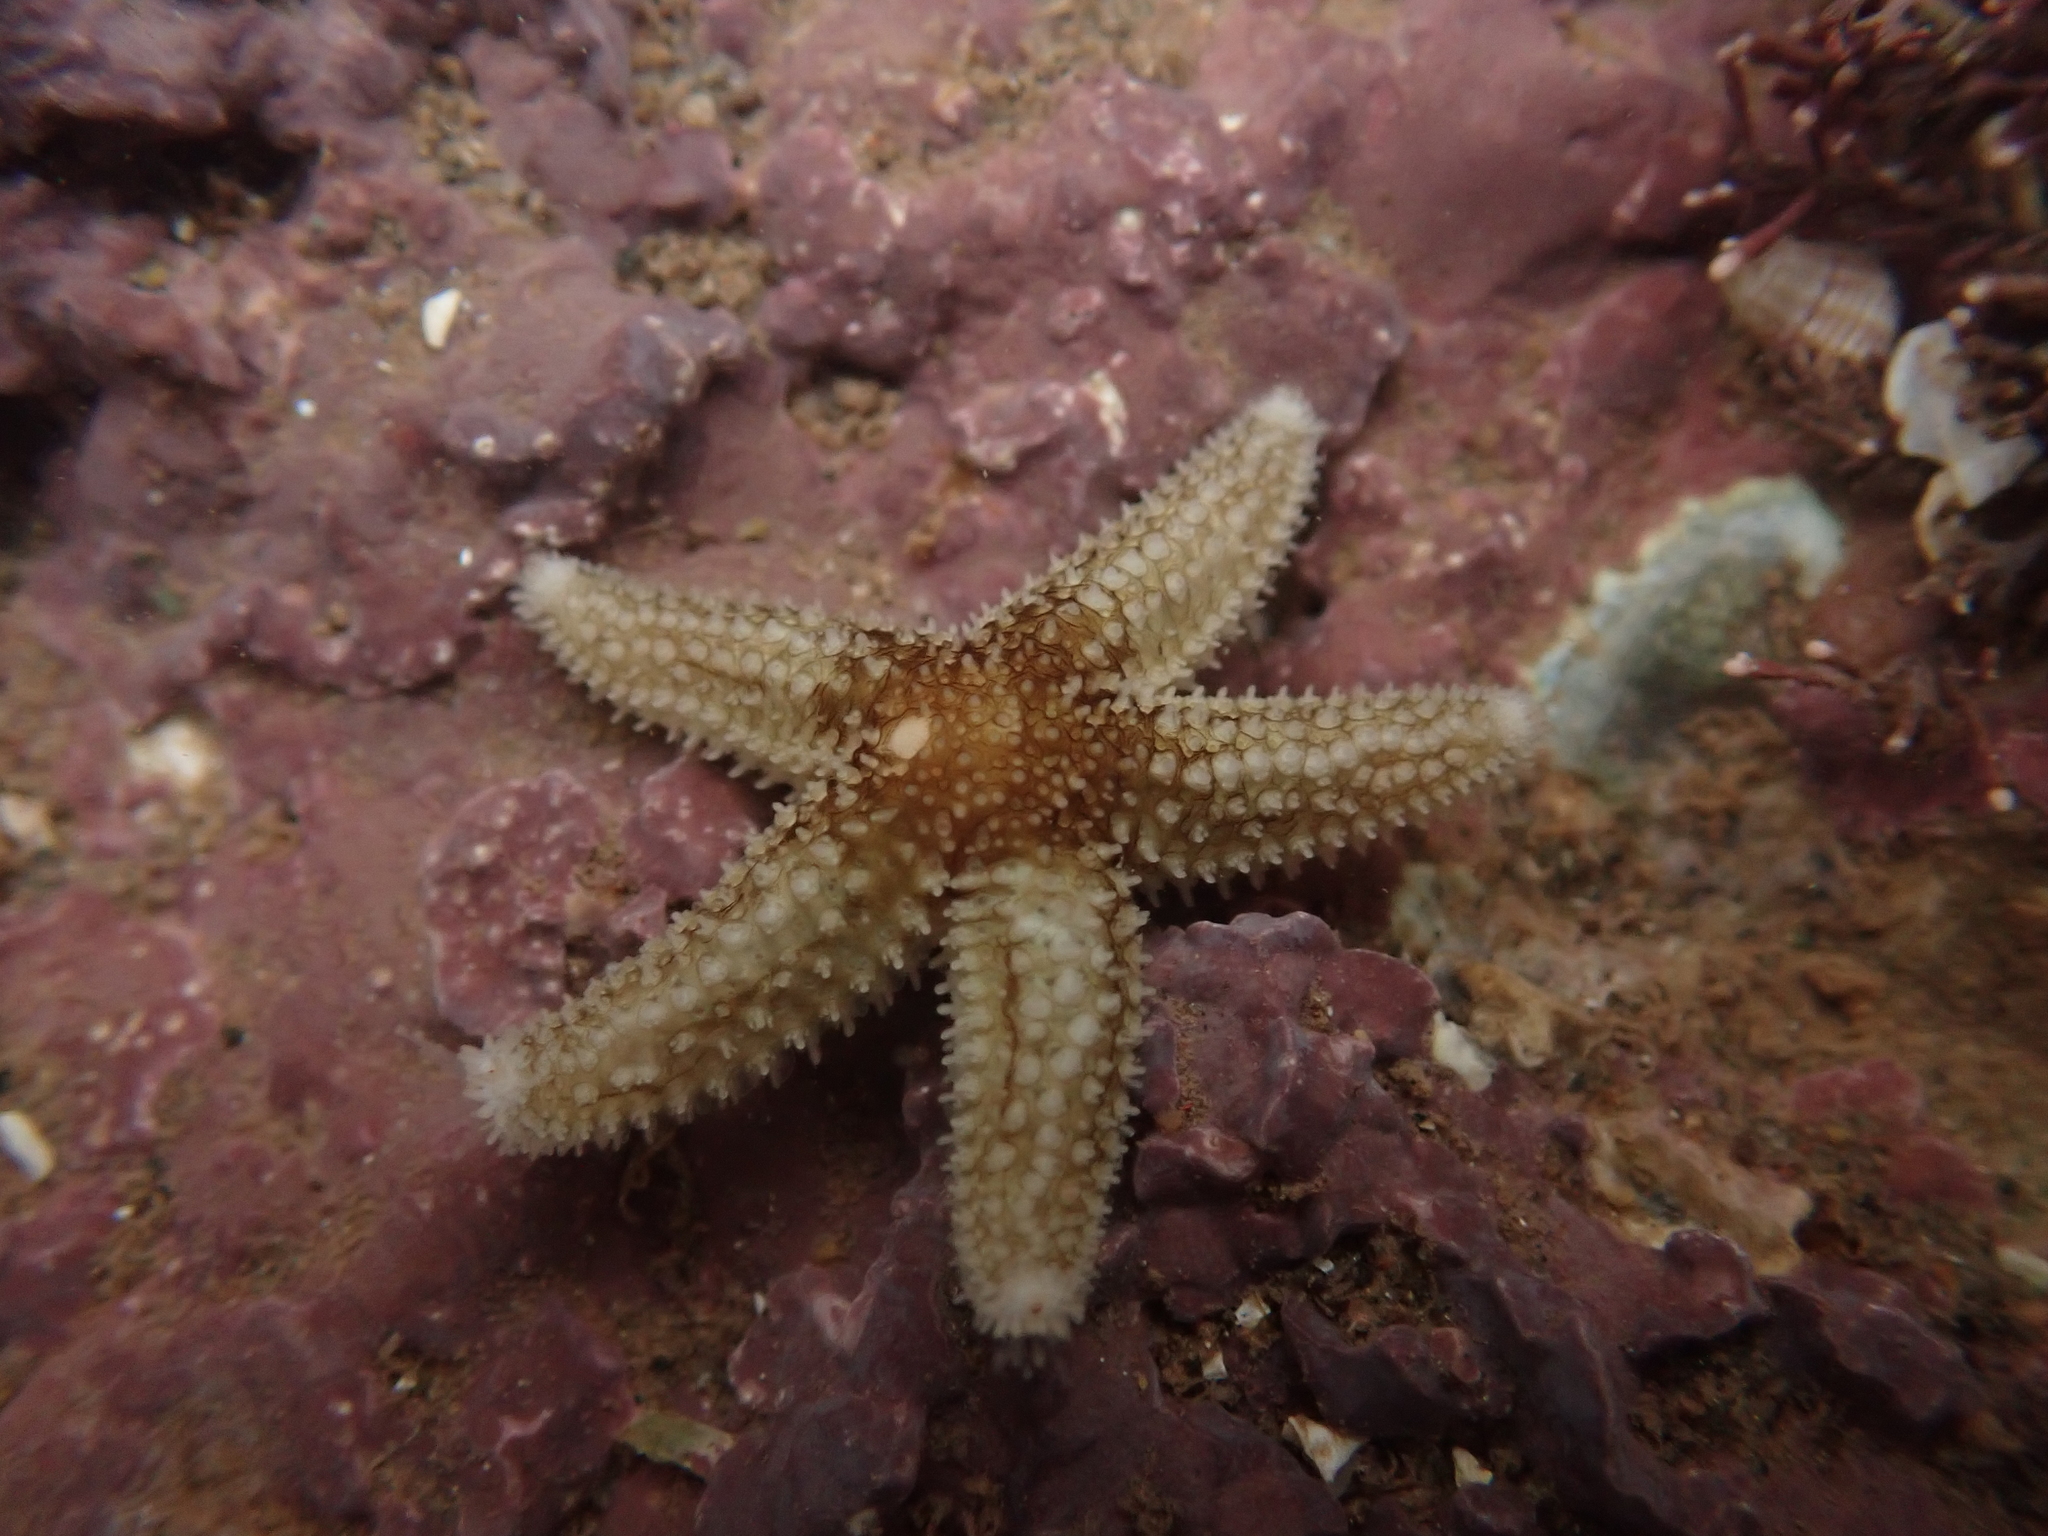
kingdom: Animalia
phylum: Echinodermata
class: Asteroidea
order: Forcipulatida
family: Asteriidae
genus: Asterias
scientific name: Asterias rubens
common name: Common starfish
